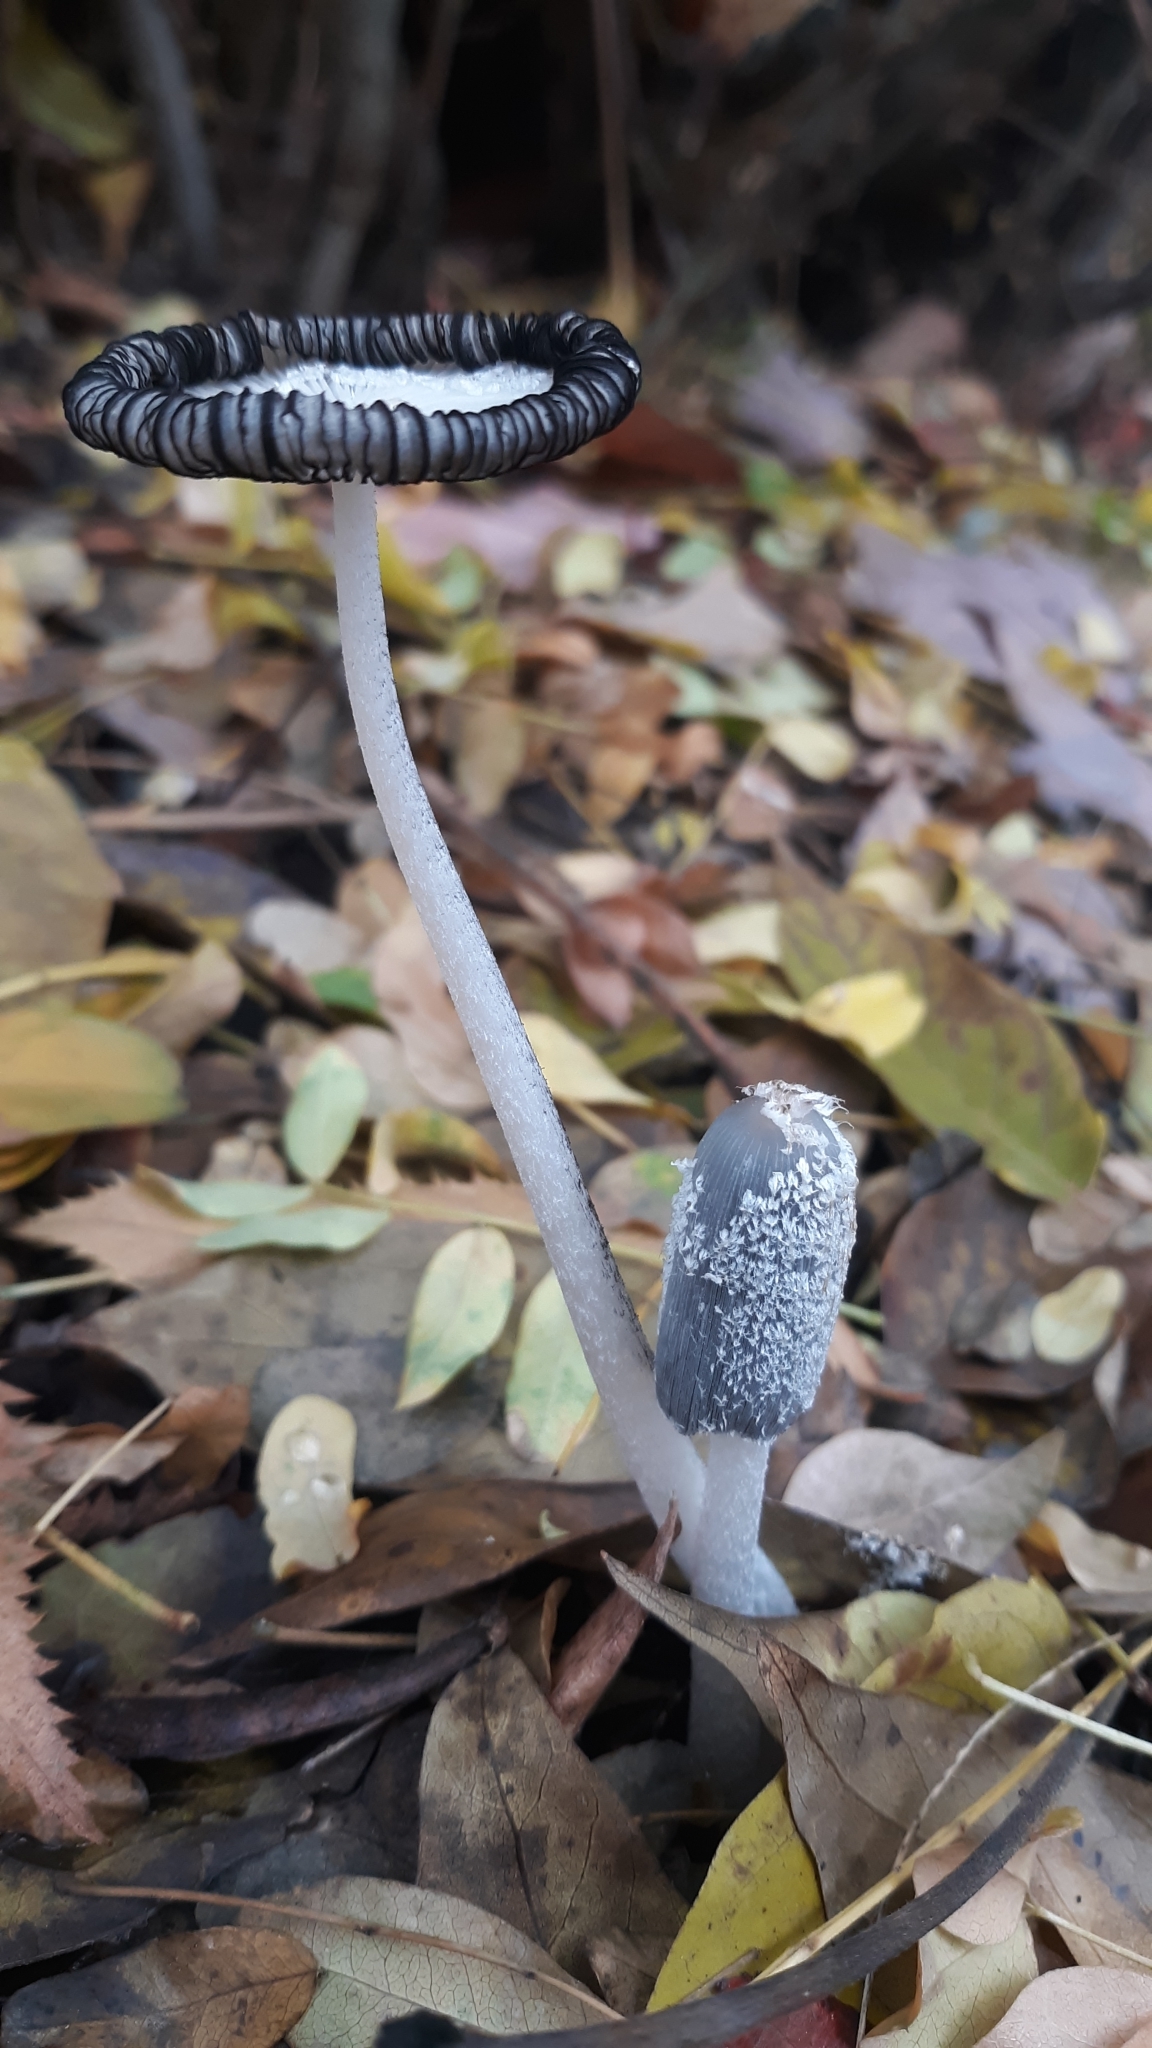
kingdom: Fungi
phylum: Basidiomycota
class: Agaricomycetes
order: Agaricales
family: Psathyrellaceae
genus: Coprinopsis
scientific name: Coprinopsis lagopus
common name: Hare'sfoot inkcap
